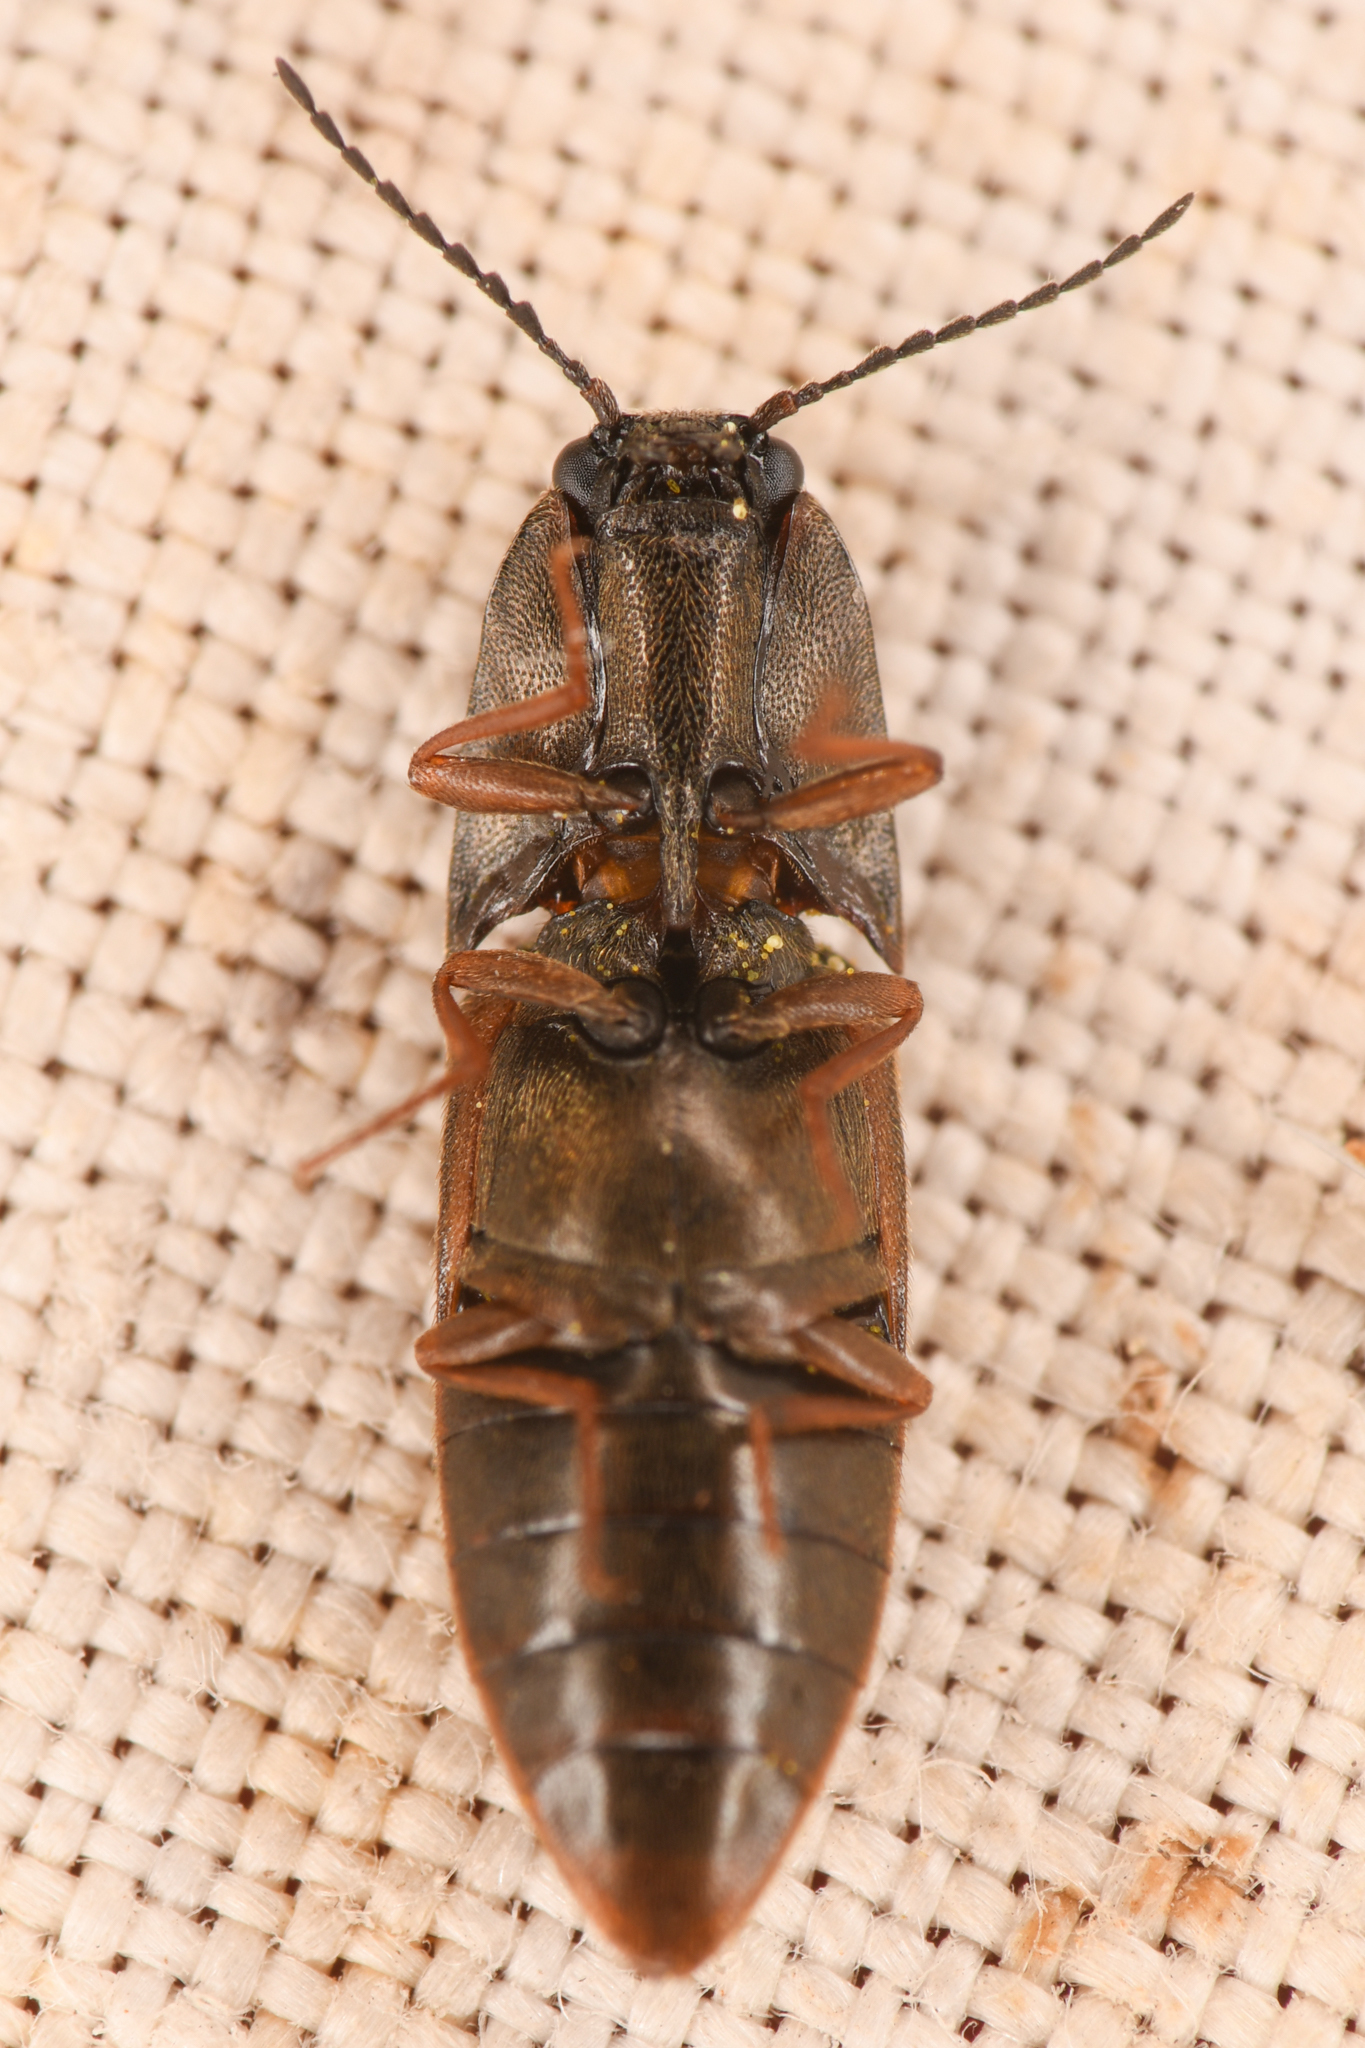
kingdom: Animalia
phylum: Arthropoda
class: Insecta
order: Coleoptera
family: Elateridae
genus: Sericus
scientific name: Sericus incongruus
